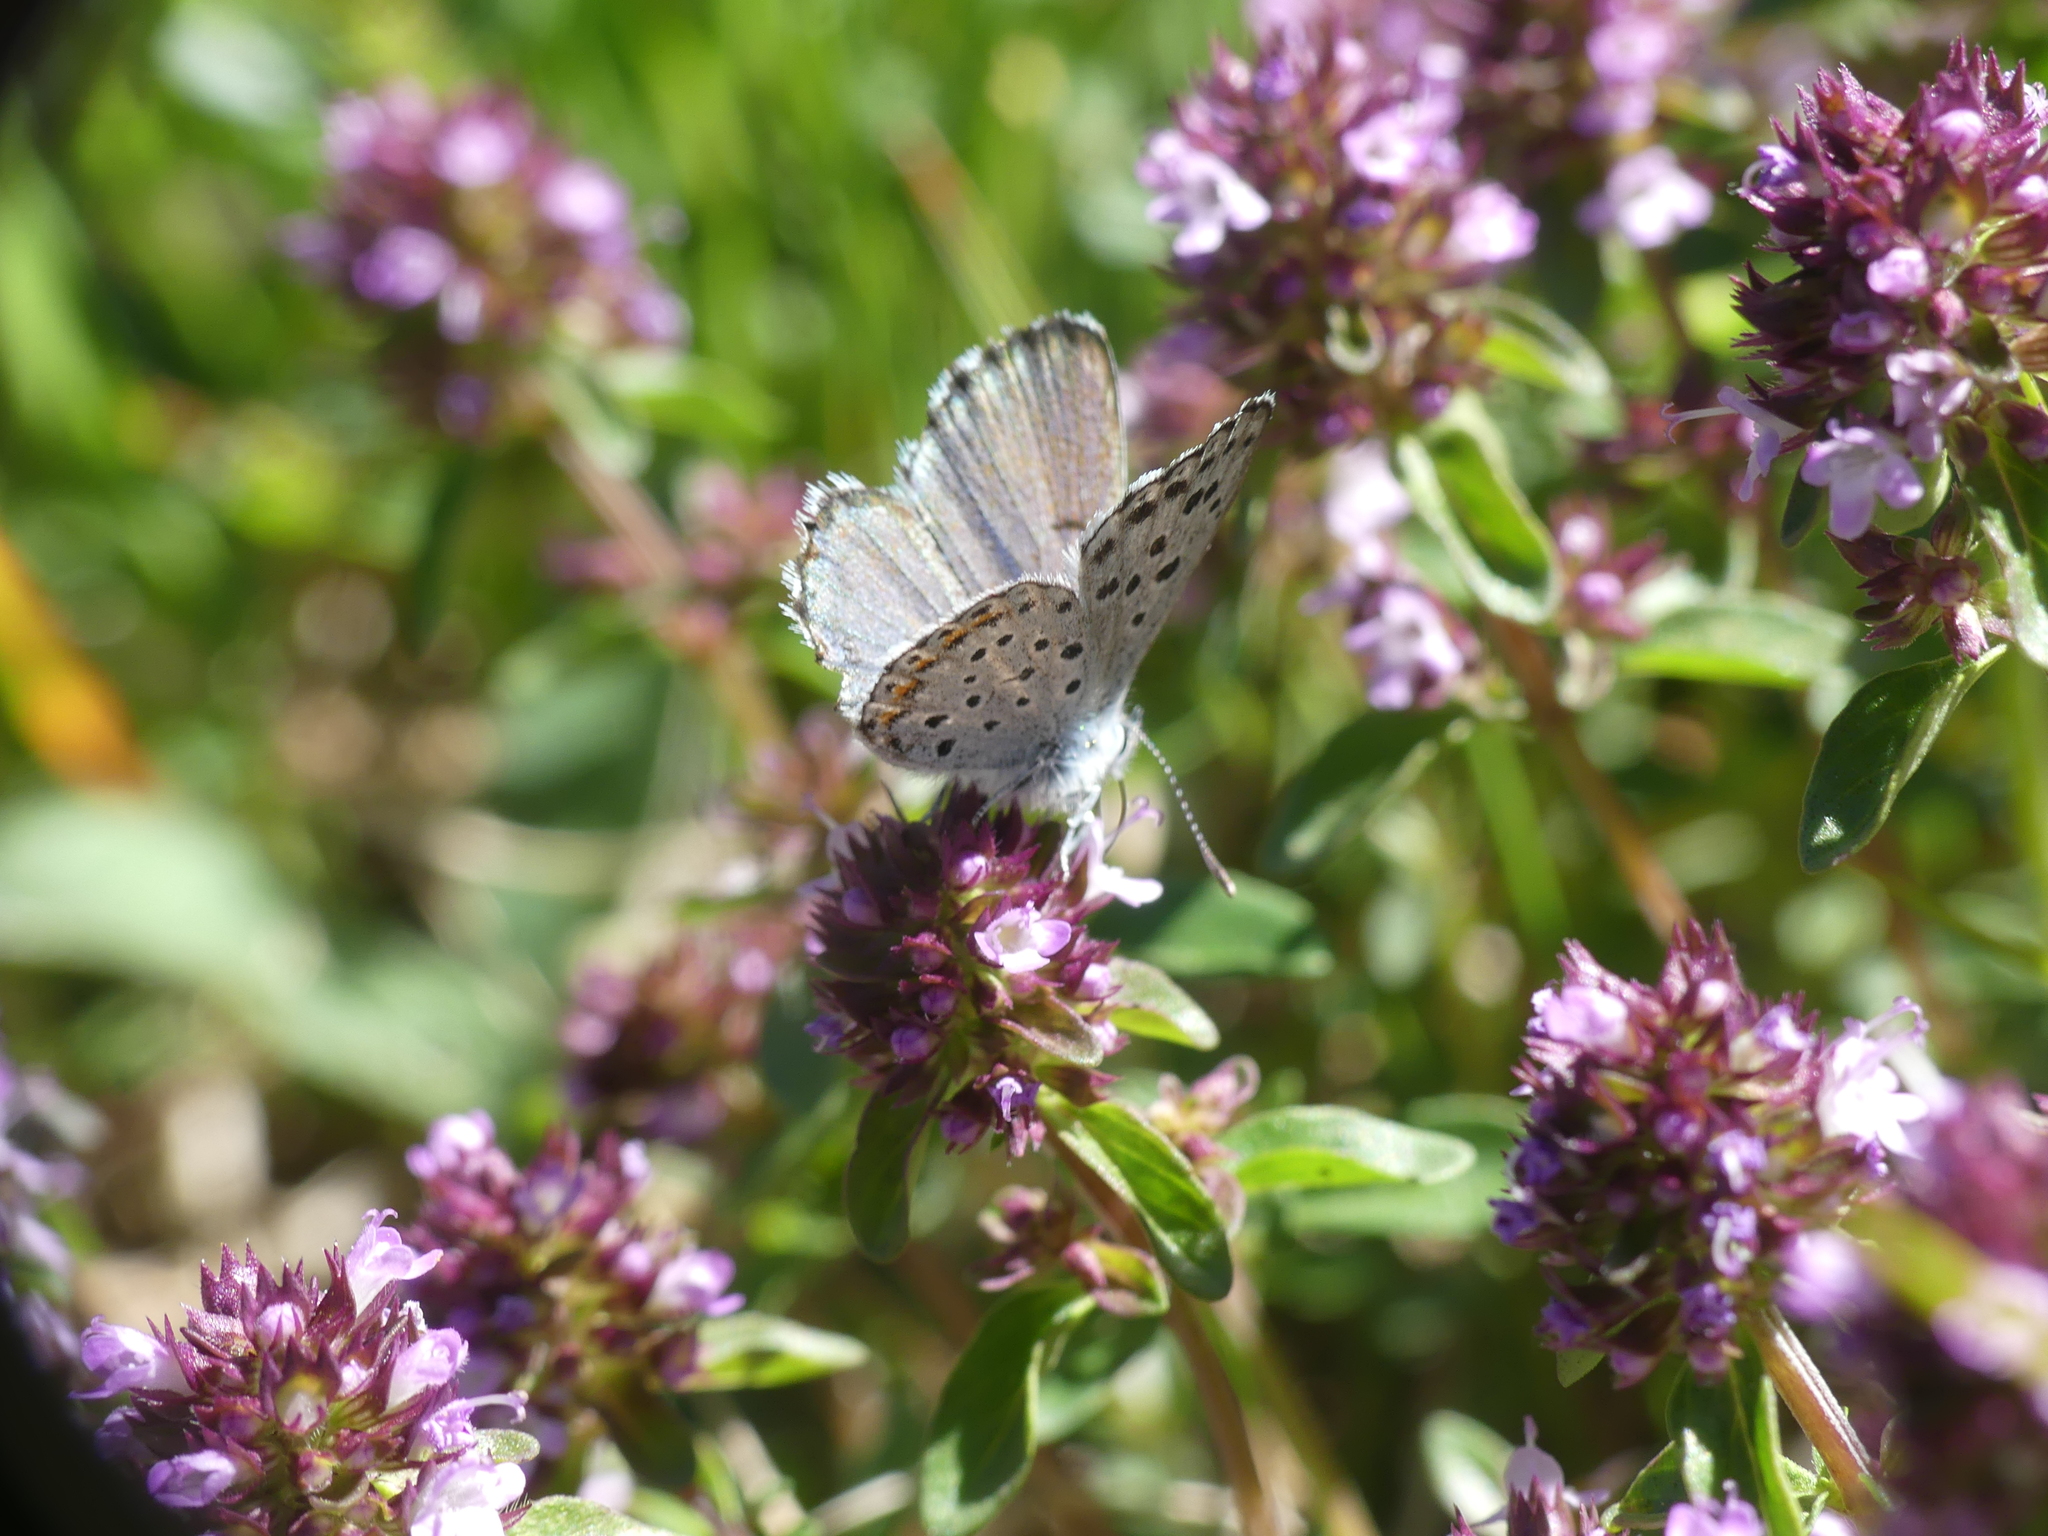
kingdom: Animalia
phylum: Arthropoda
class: Insecta
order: Lepidoptera
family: Lycaenidae
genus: Pseudophilotes
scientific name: Pseudophilotes baton
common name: Baton blue
